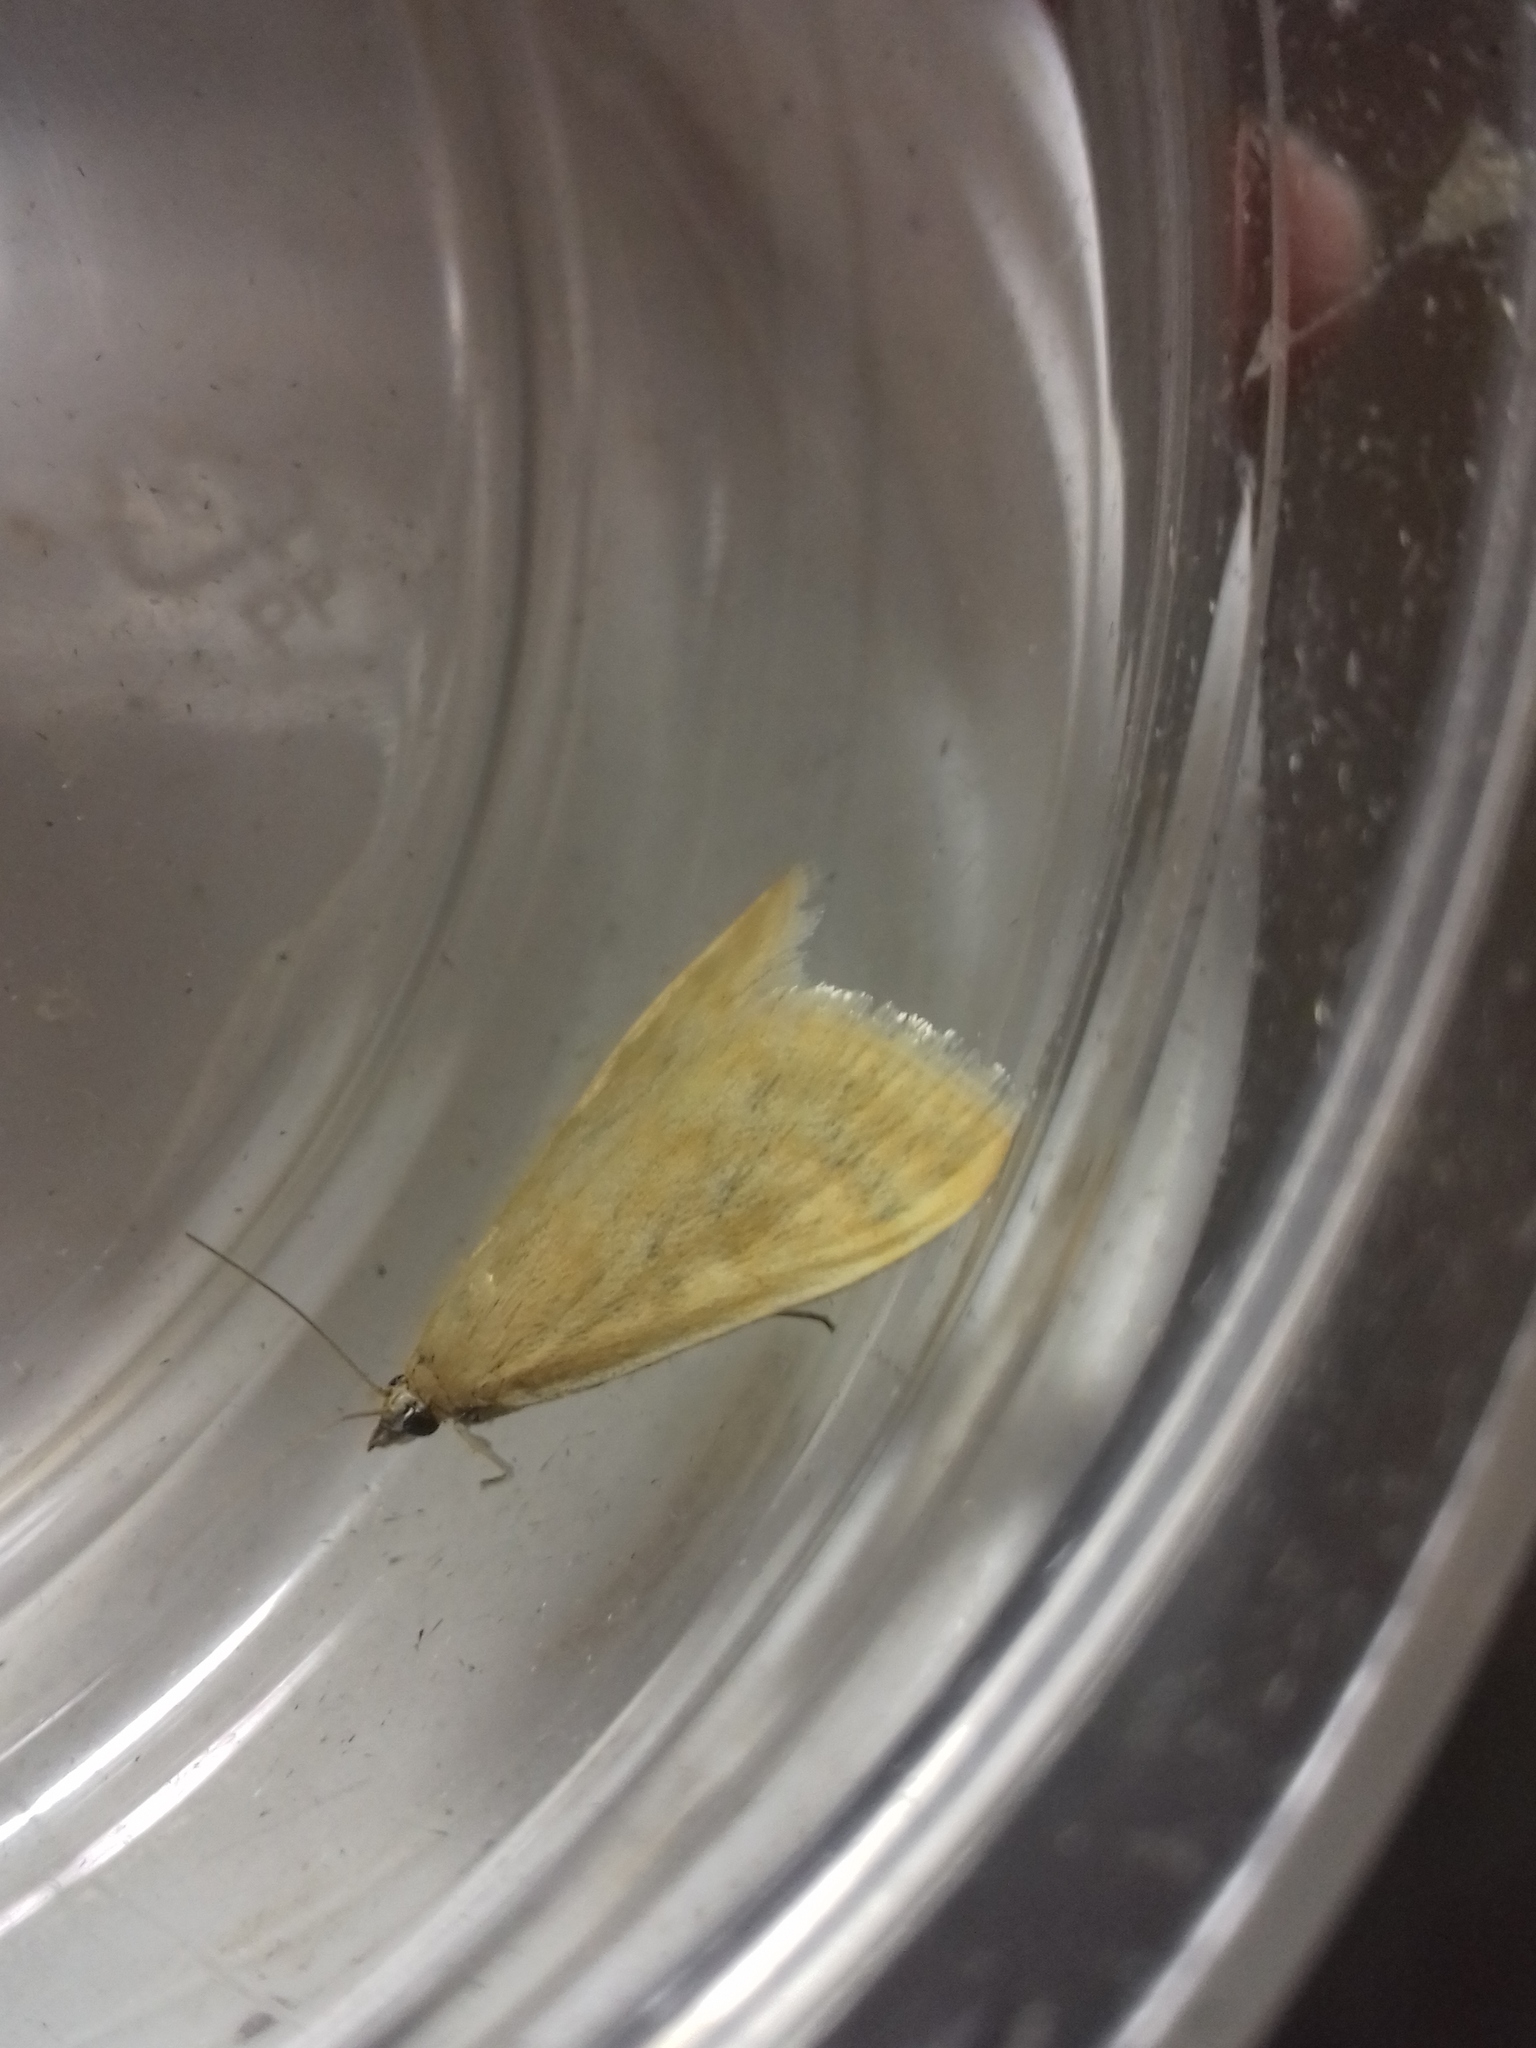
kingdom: Animalia
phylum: Arthropoda
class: Insecta
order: Lepidoptera
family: Crambidae
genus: Sitochroa
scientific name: Sitochroa verticalis
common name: Lesser pearl
